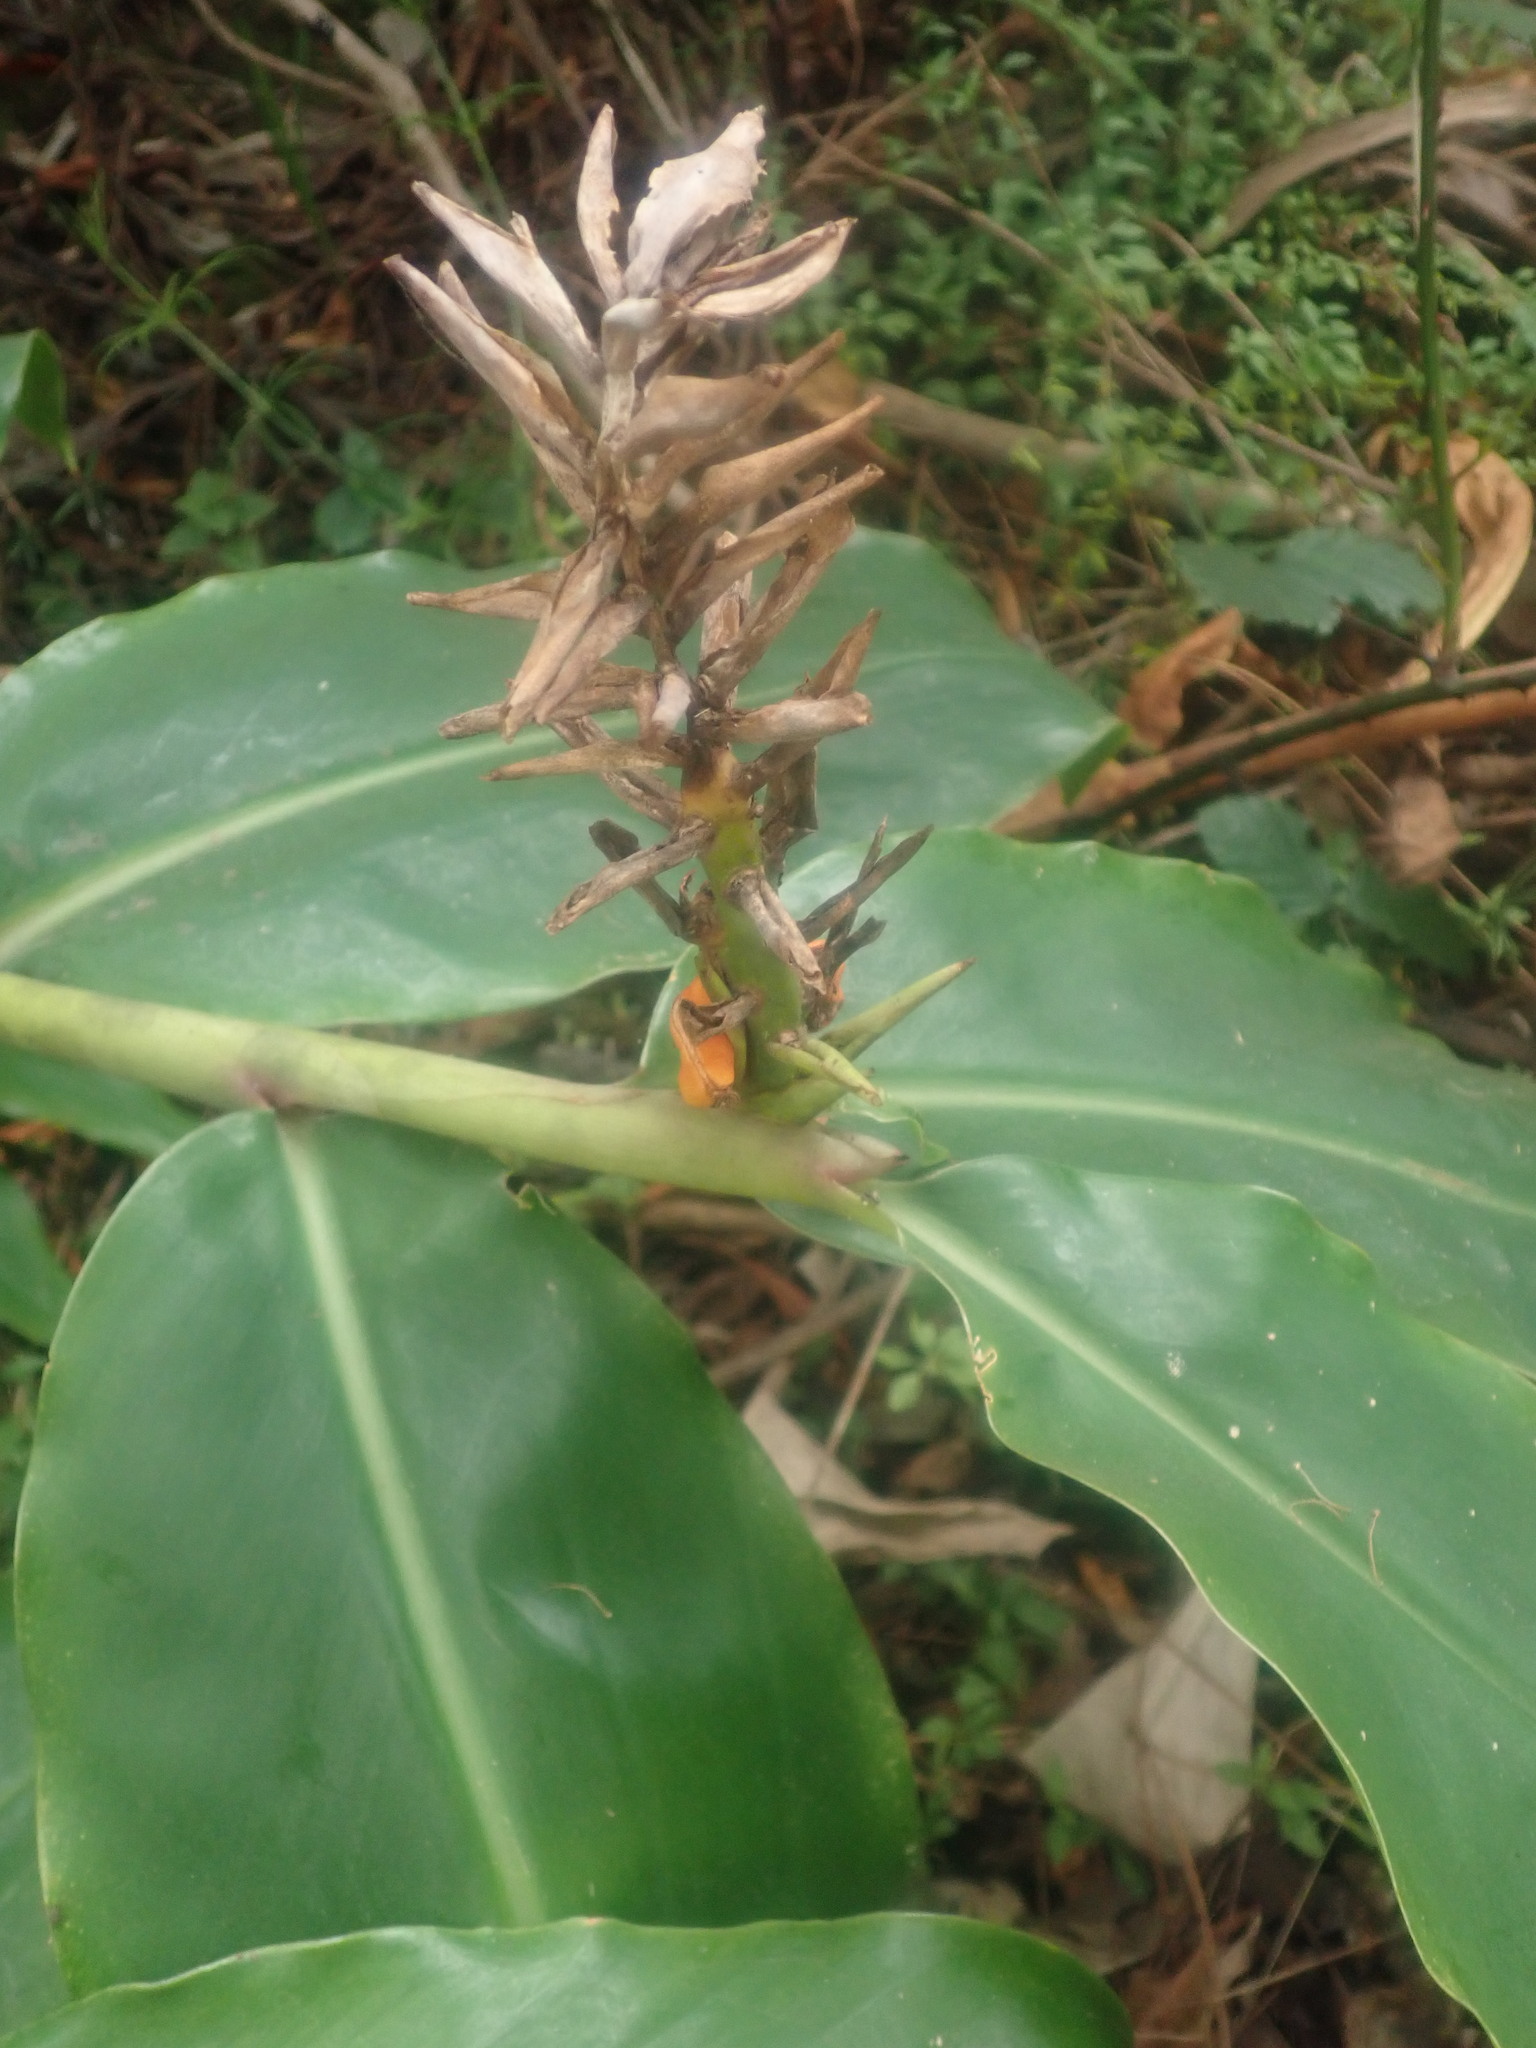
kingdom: Plantae
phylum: Tracheophyta
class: Liliopsida
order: Zingiberales
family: Zingiberaceae
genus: Hedychium
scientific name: Hedychium gardnerianum
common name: Himalayan ginger
